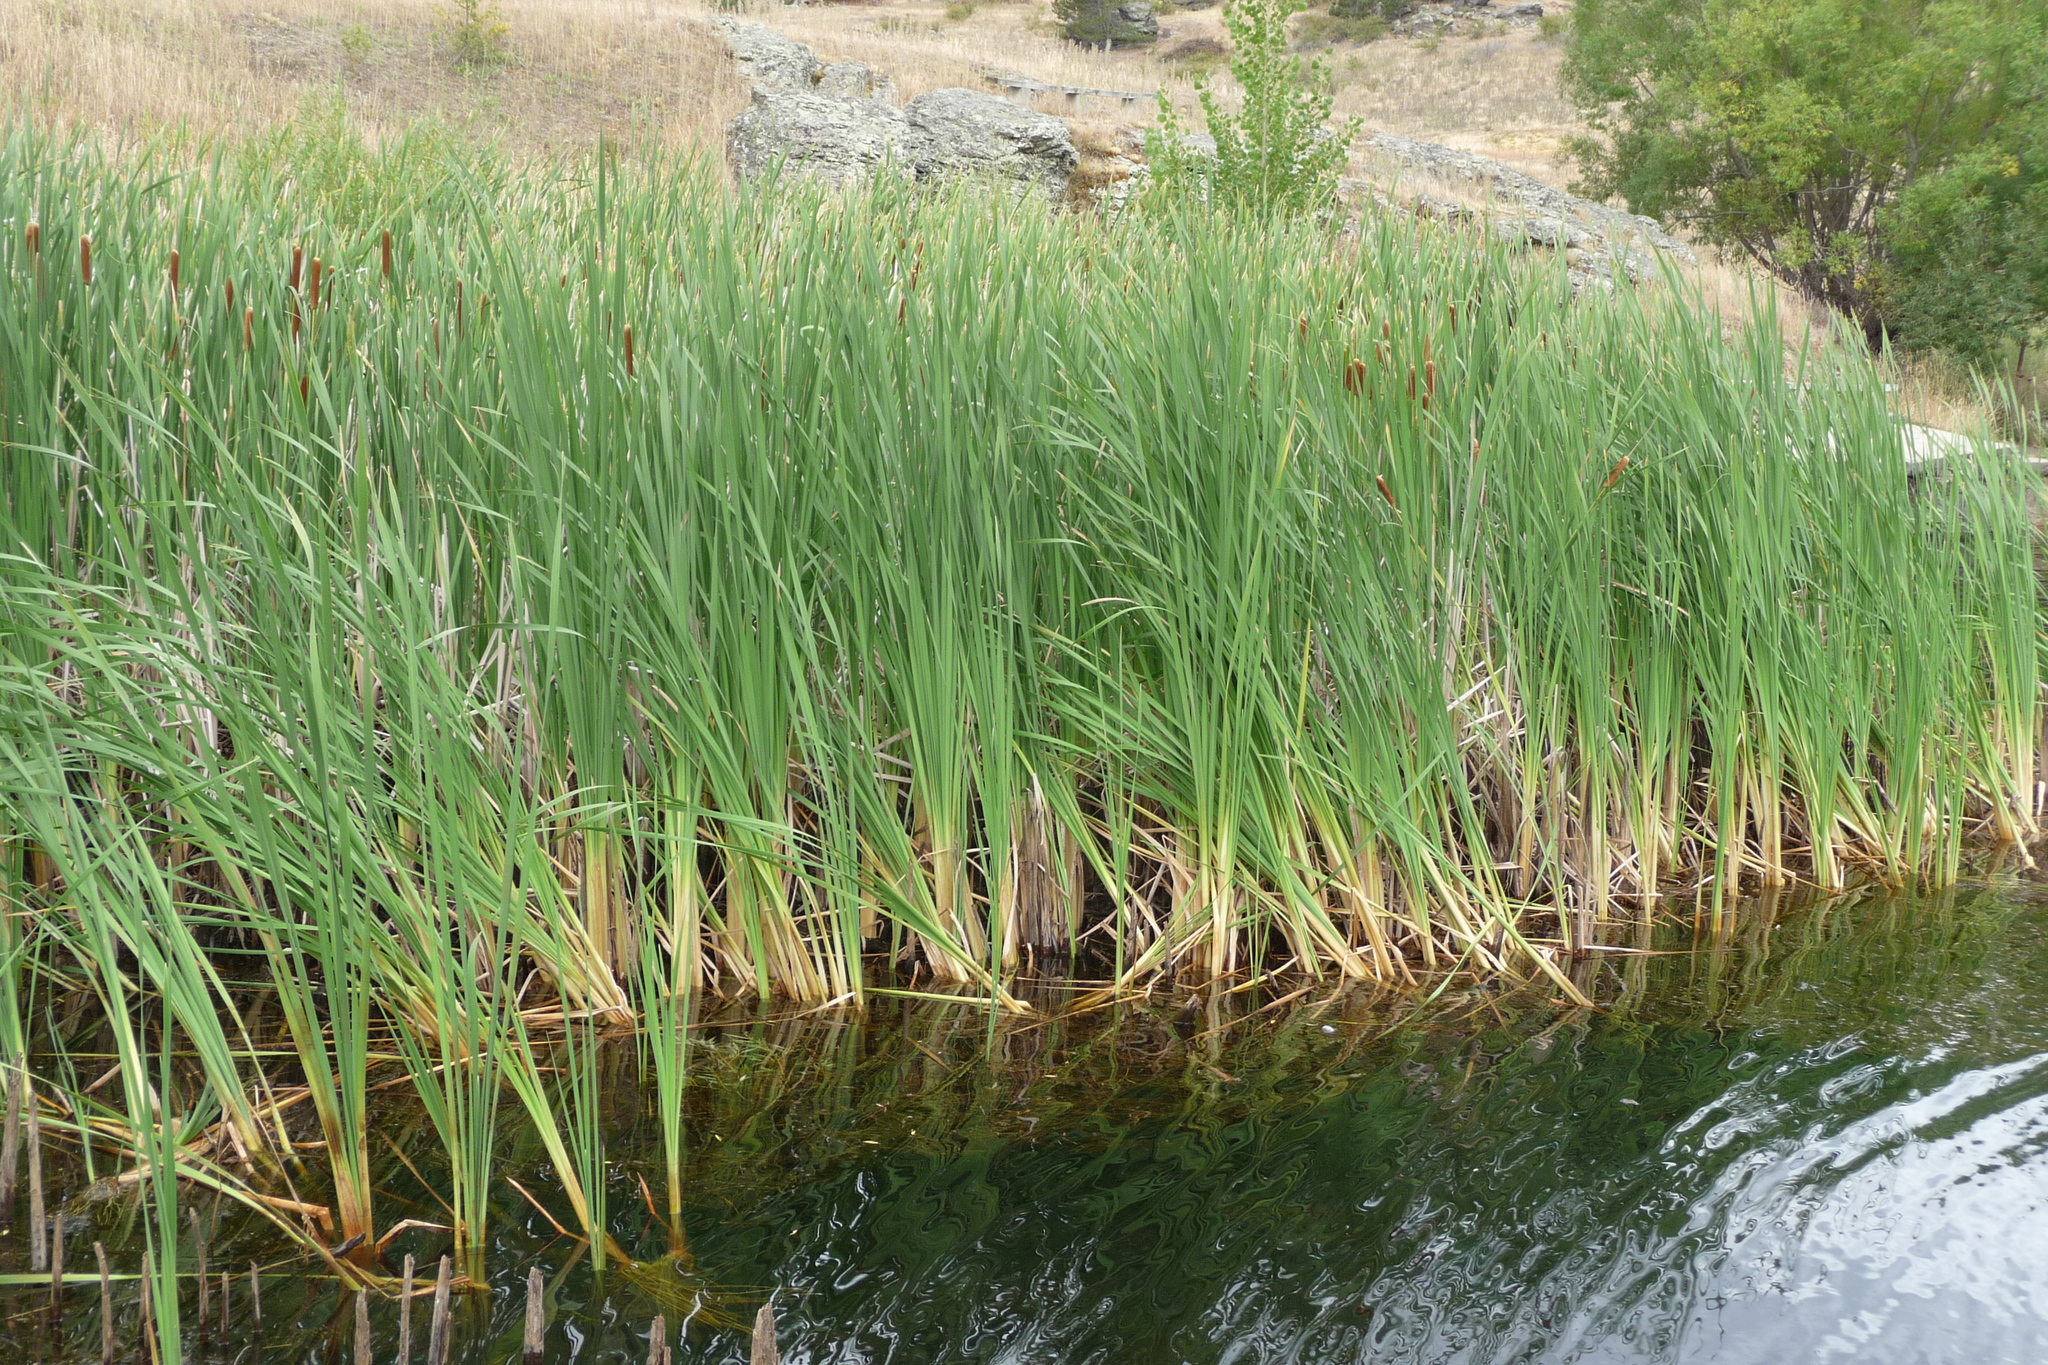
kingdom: Plantae
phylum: Tracheophyta
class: Liliopsida
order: Poales
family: Typhaceae
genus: Typha
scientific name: Typha orientalis
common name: Bullrush
